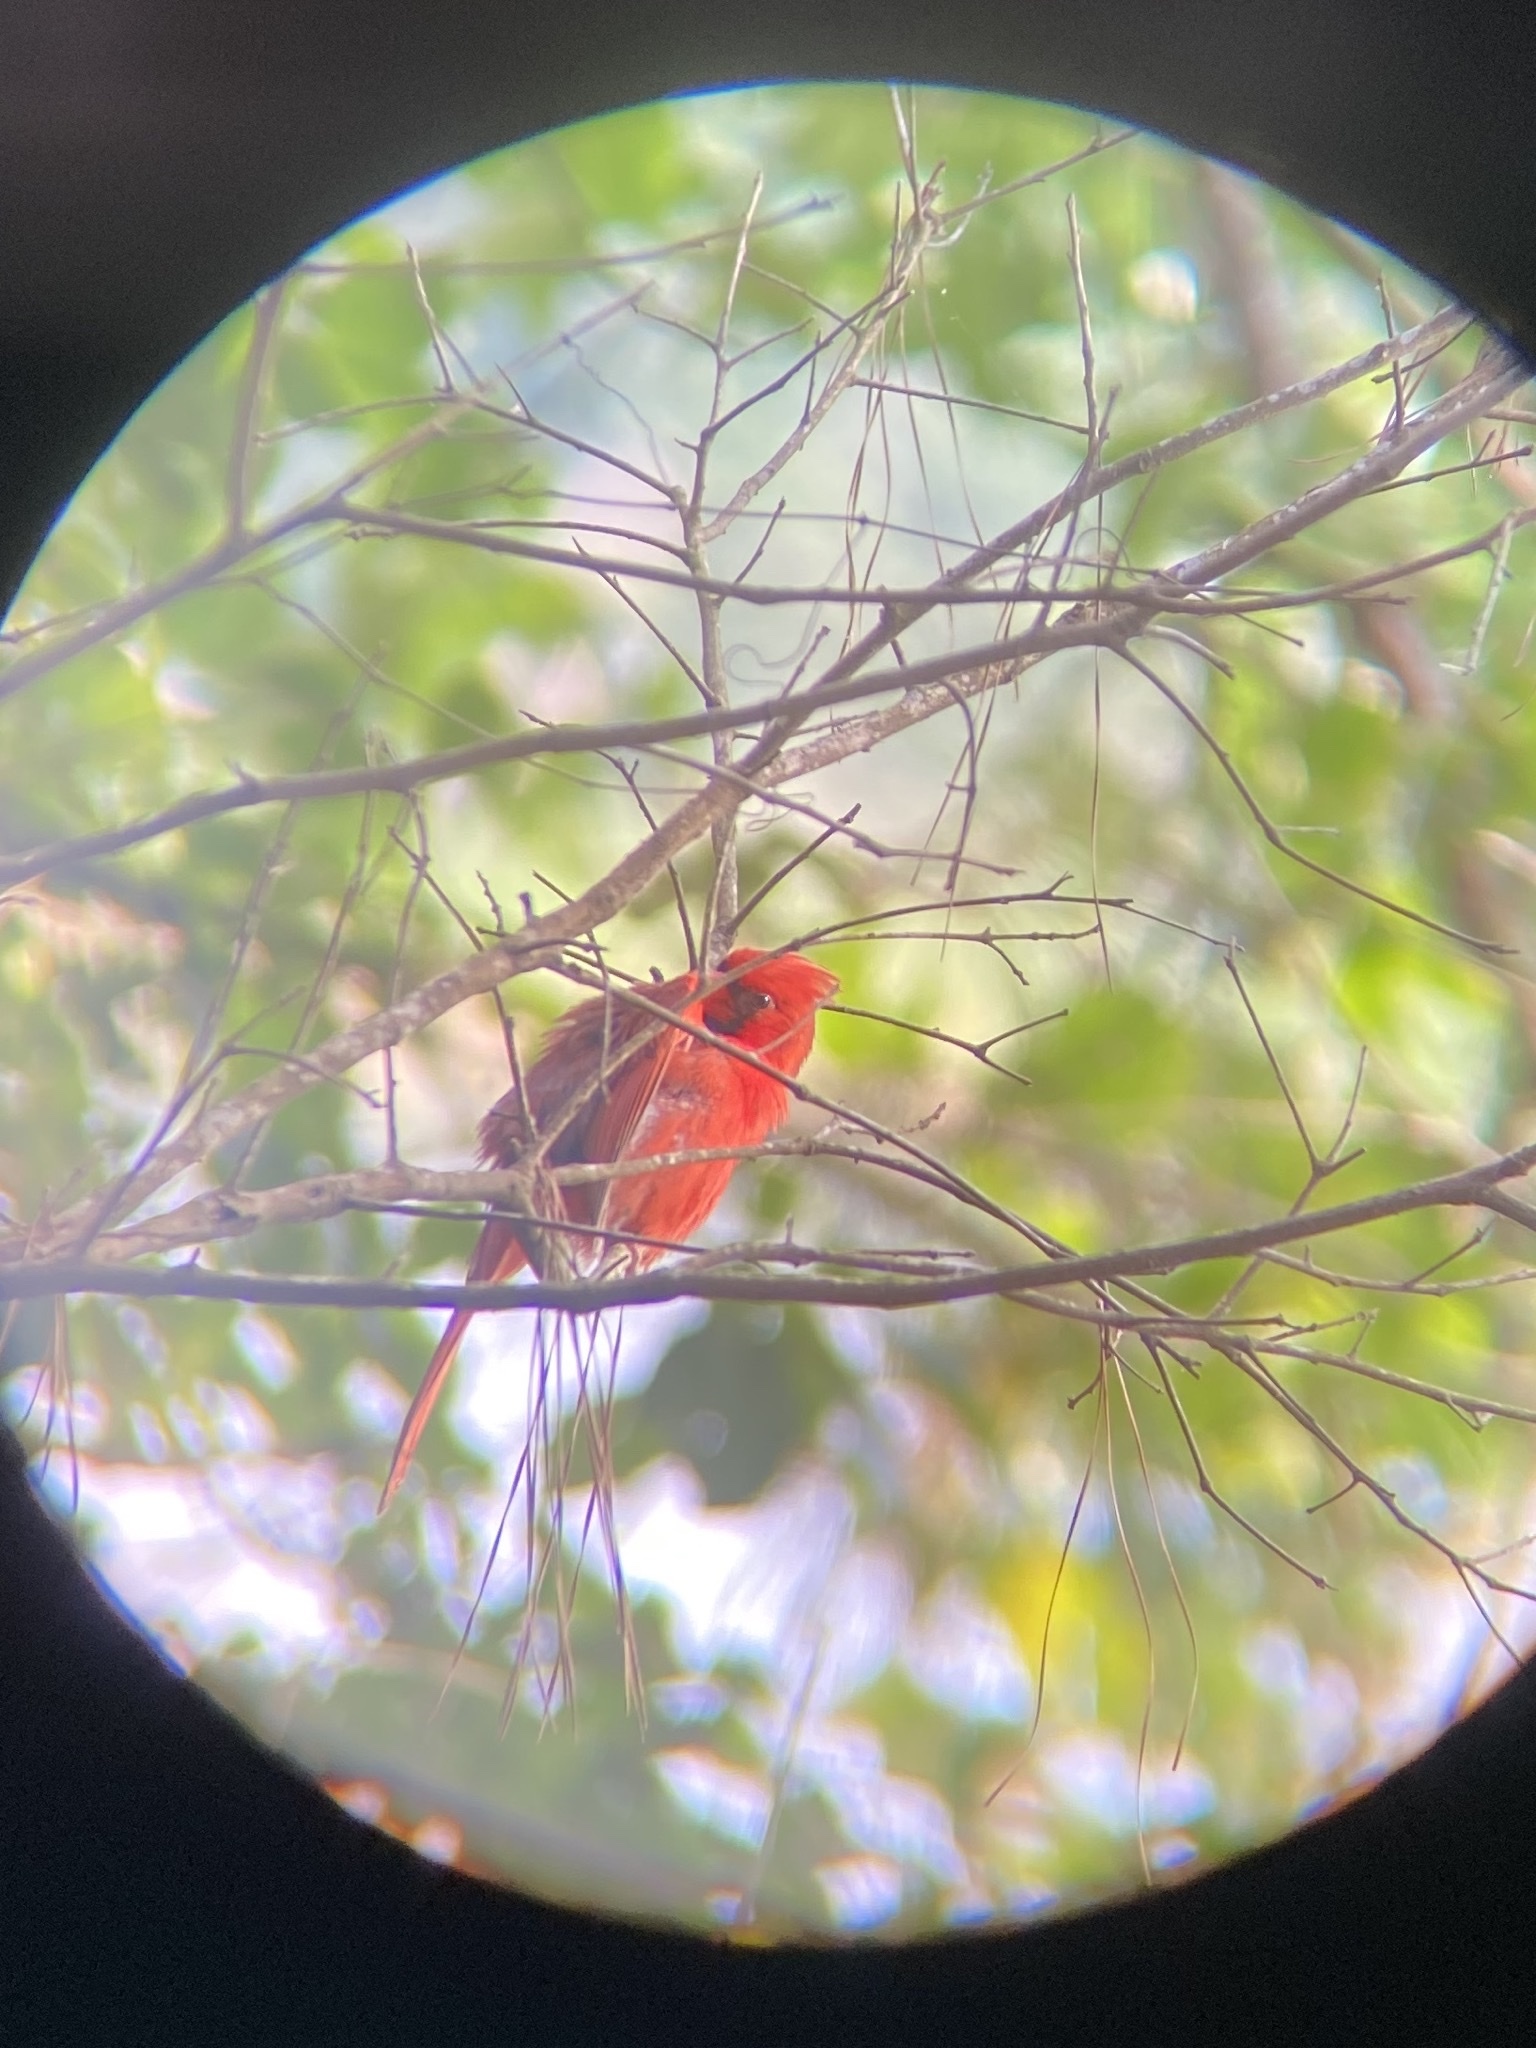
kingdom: Animalia
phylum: Chordata
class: Aves
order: Passeriformes
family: Cardinalidae
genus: Cardinalis
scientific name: Cardinalis cardinalis
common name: Northern cardinal
